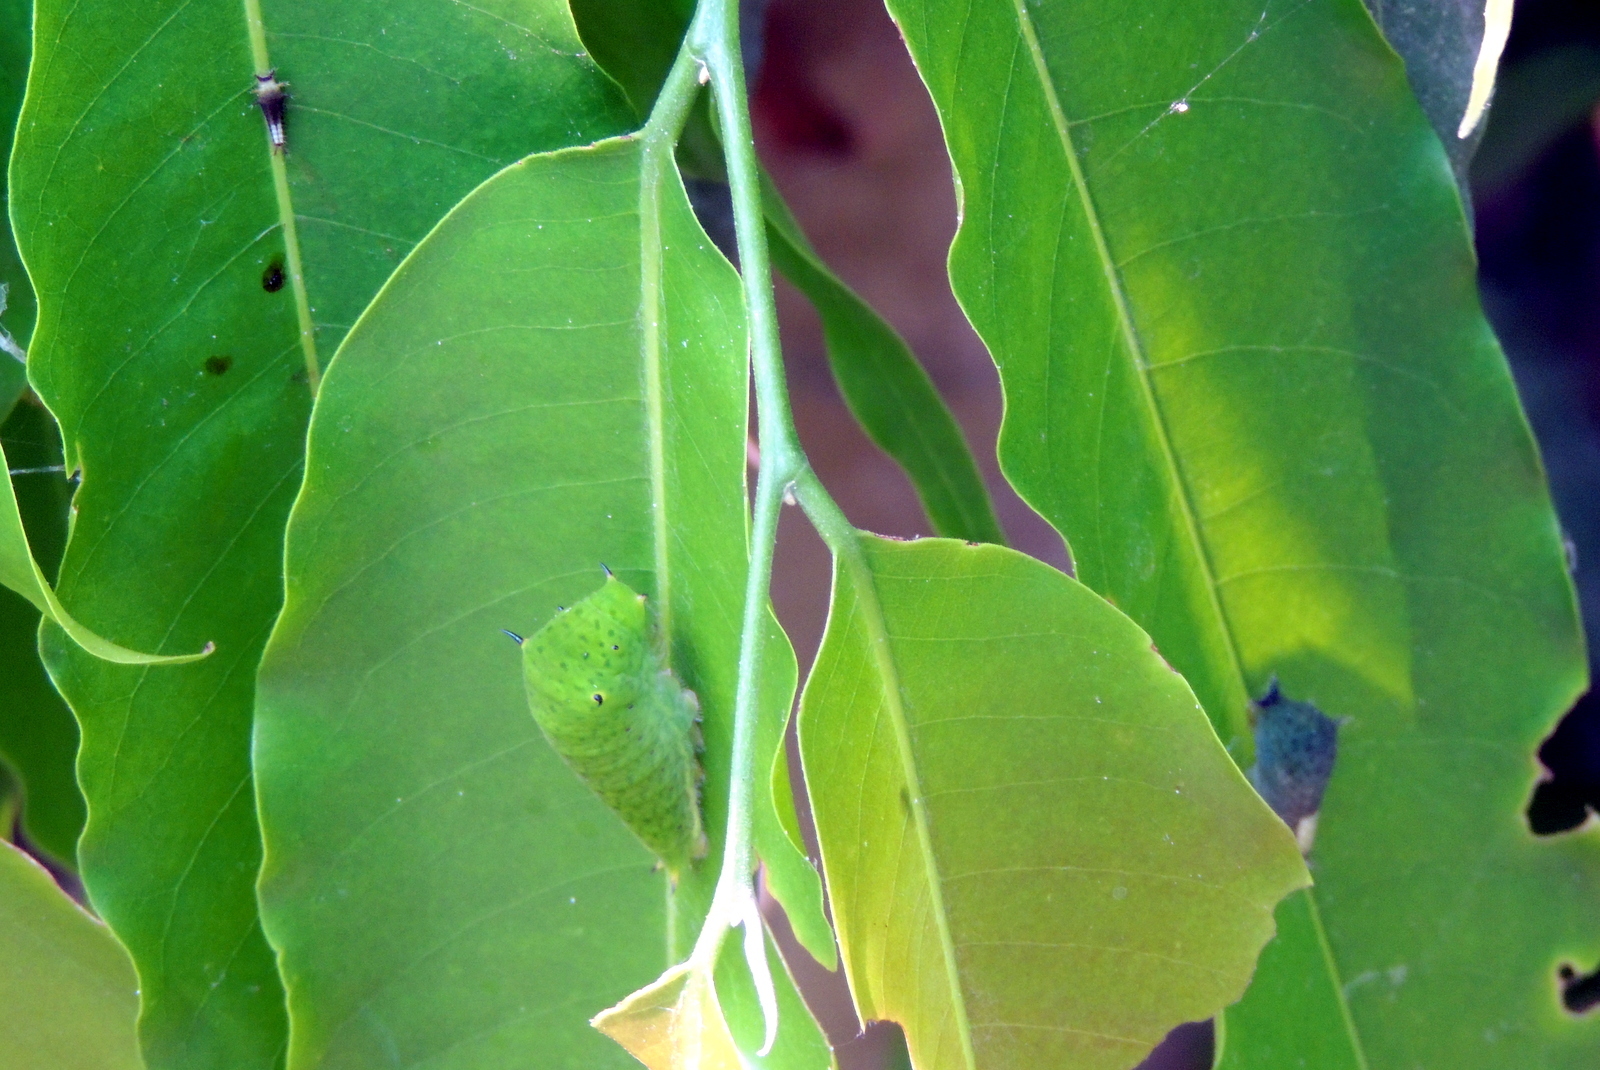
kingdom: Animalia
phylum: Arthropoda
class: Insecta
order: Lepidoptera
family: Papilionidae
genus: Graphium
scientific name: Graphium doson
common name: Common jay
